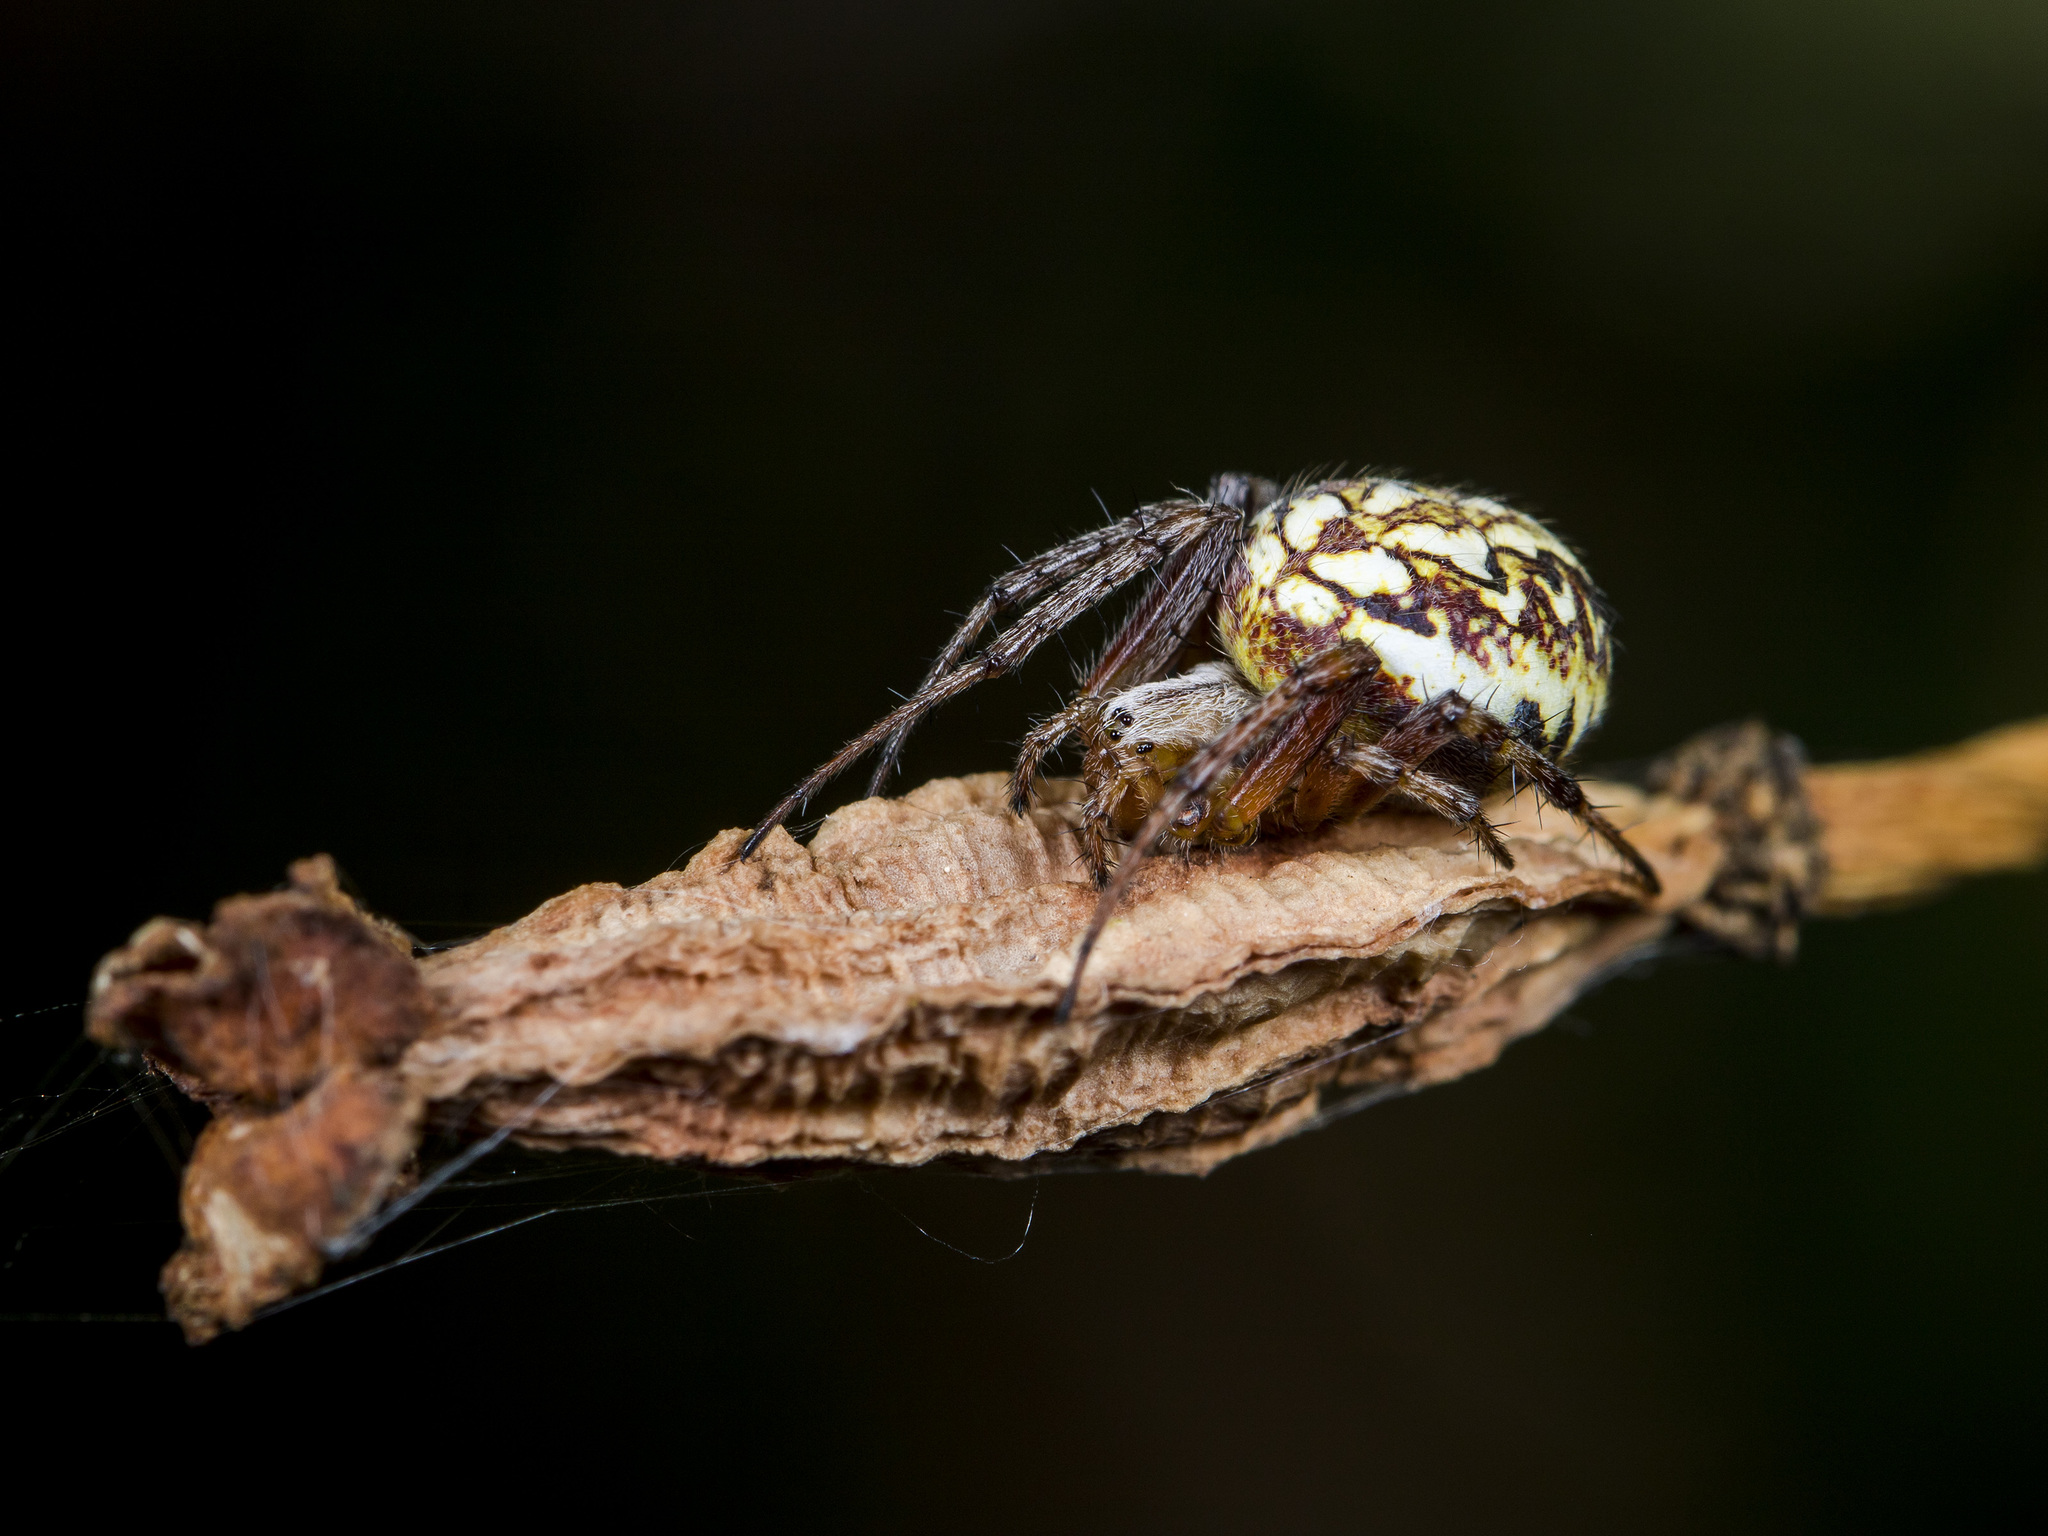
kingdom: Animalia
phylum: Arthropoda
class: Arachnida
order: Araneae
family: Araneidae
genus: Neoscona
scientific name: Neoscona adianta
